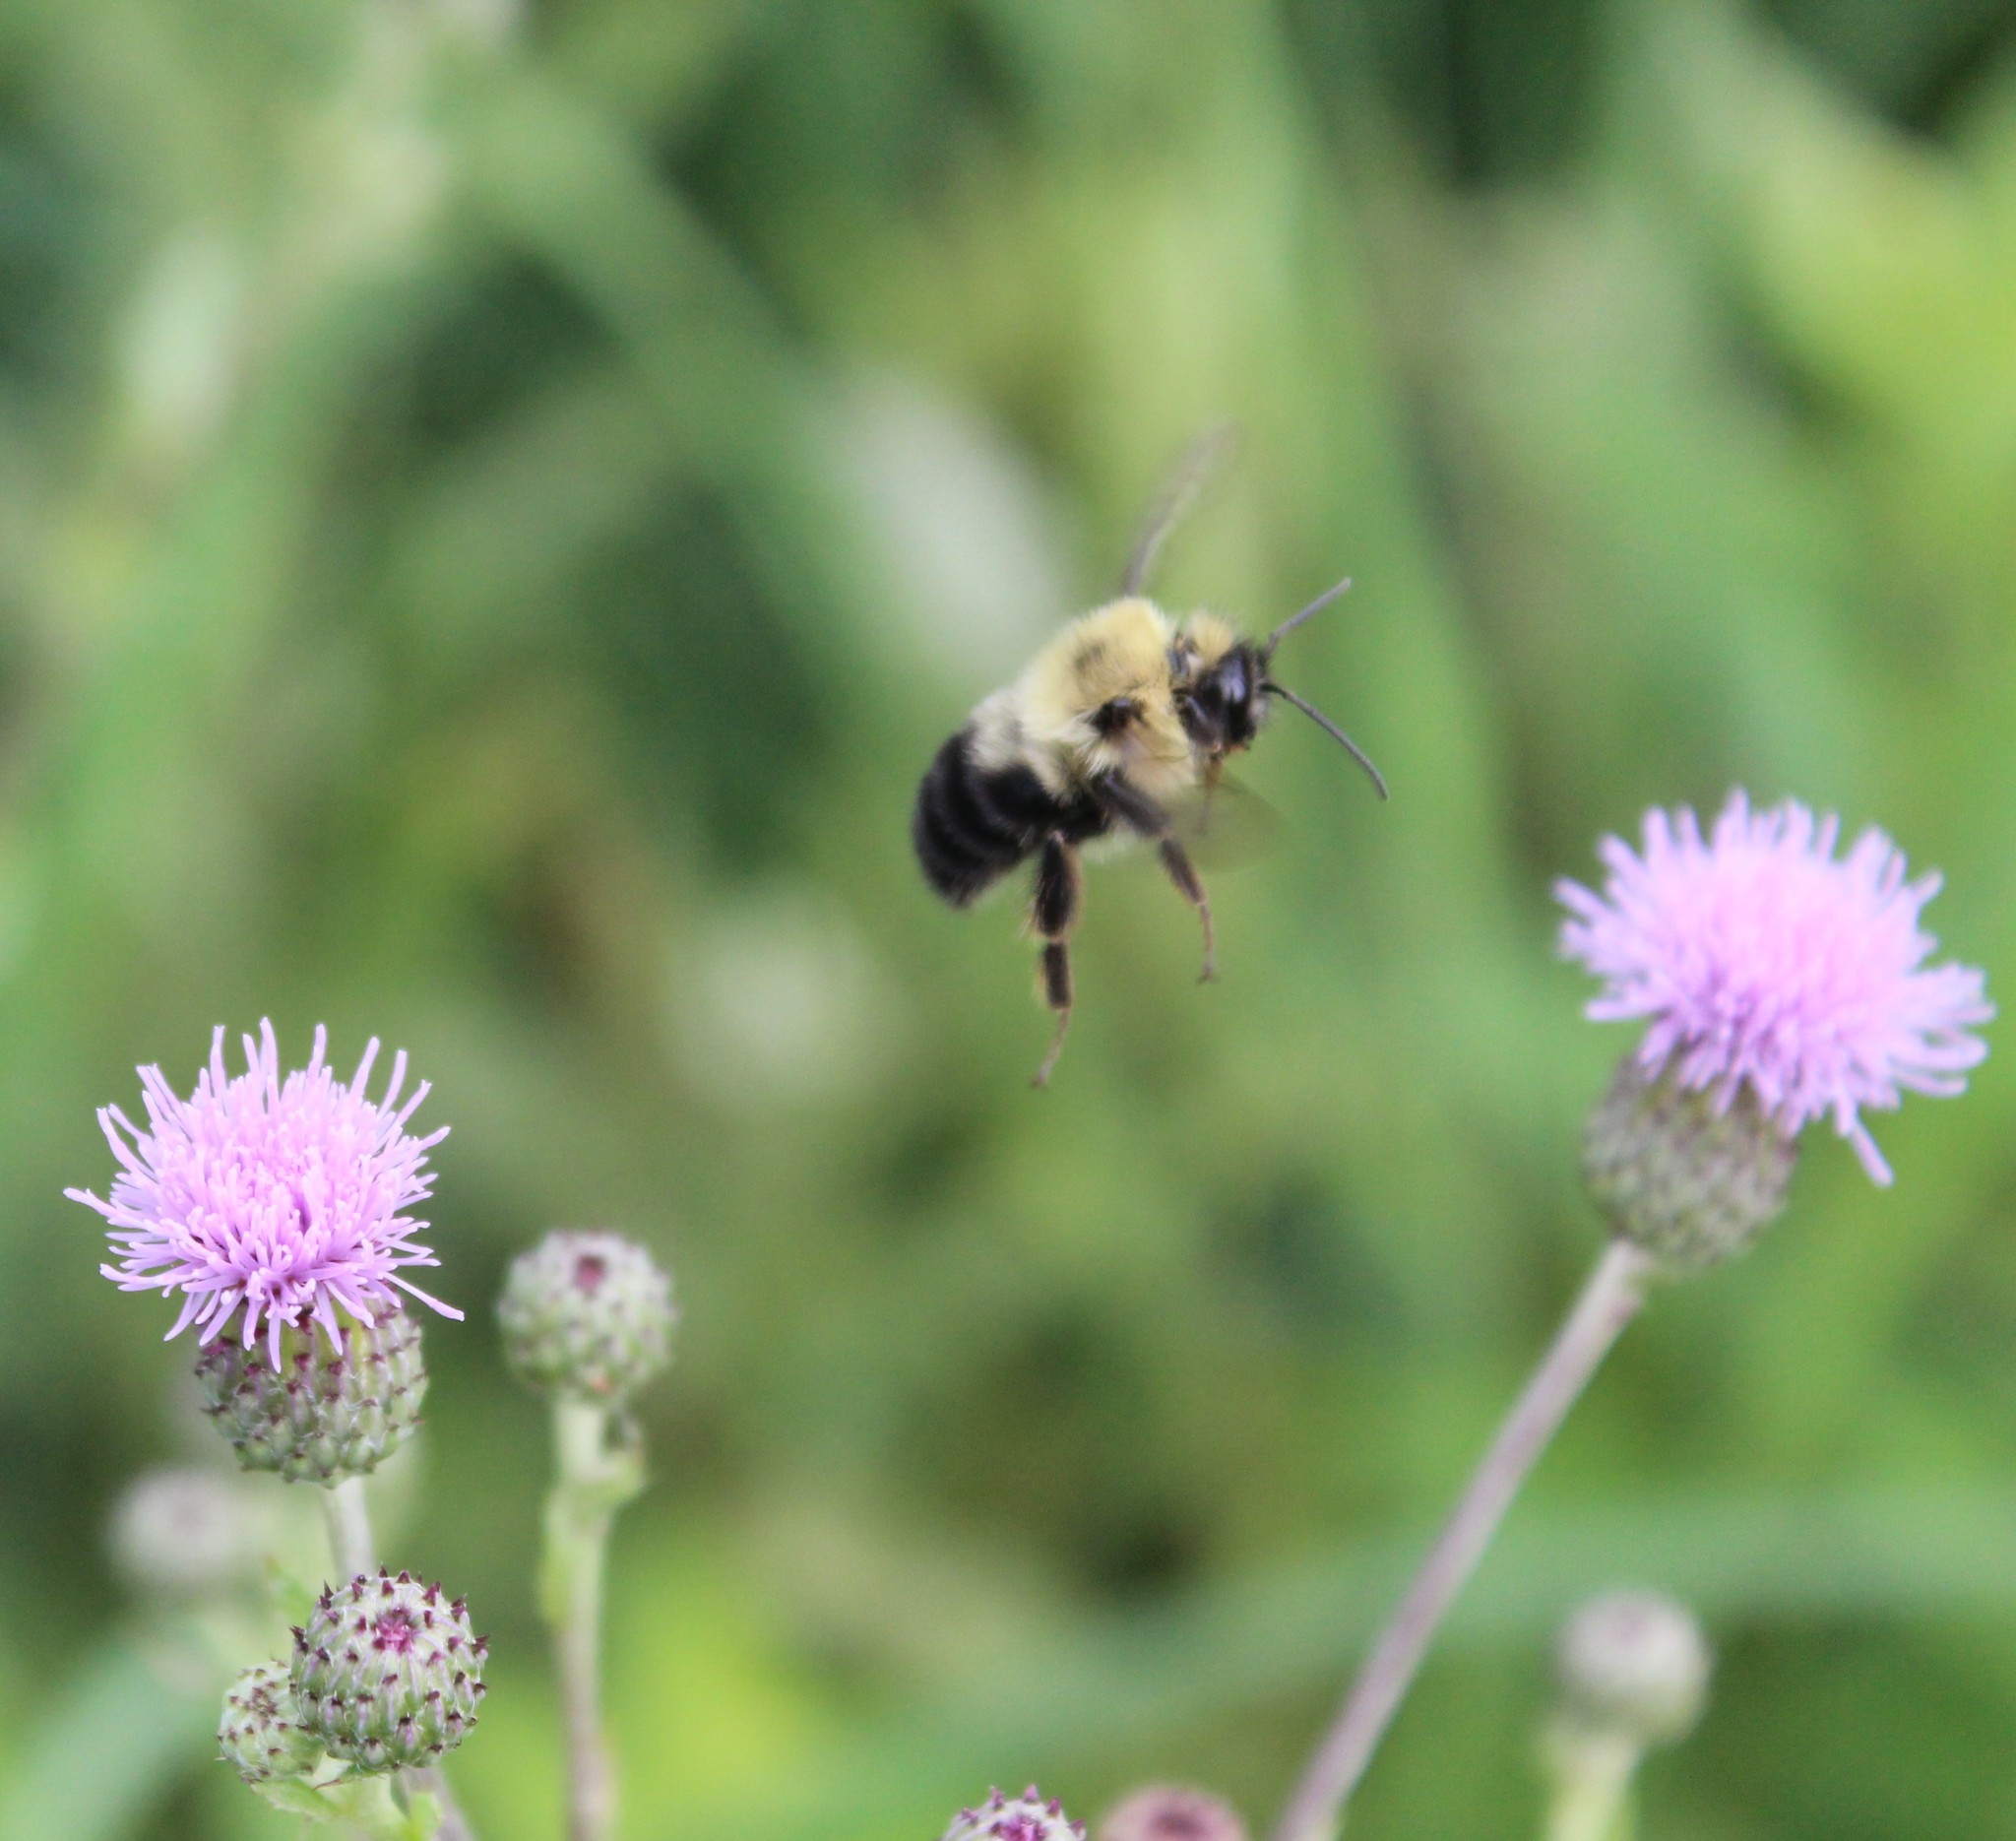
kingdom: Animalia
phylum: Arthropoda
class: Insecta
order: Hymenoptera
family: Apidae
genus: Bombus
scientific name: Bombus bimaculatus
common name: Two-spotted bumble bee
